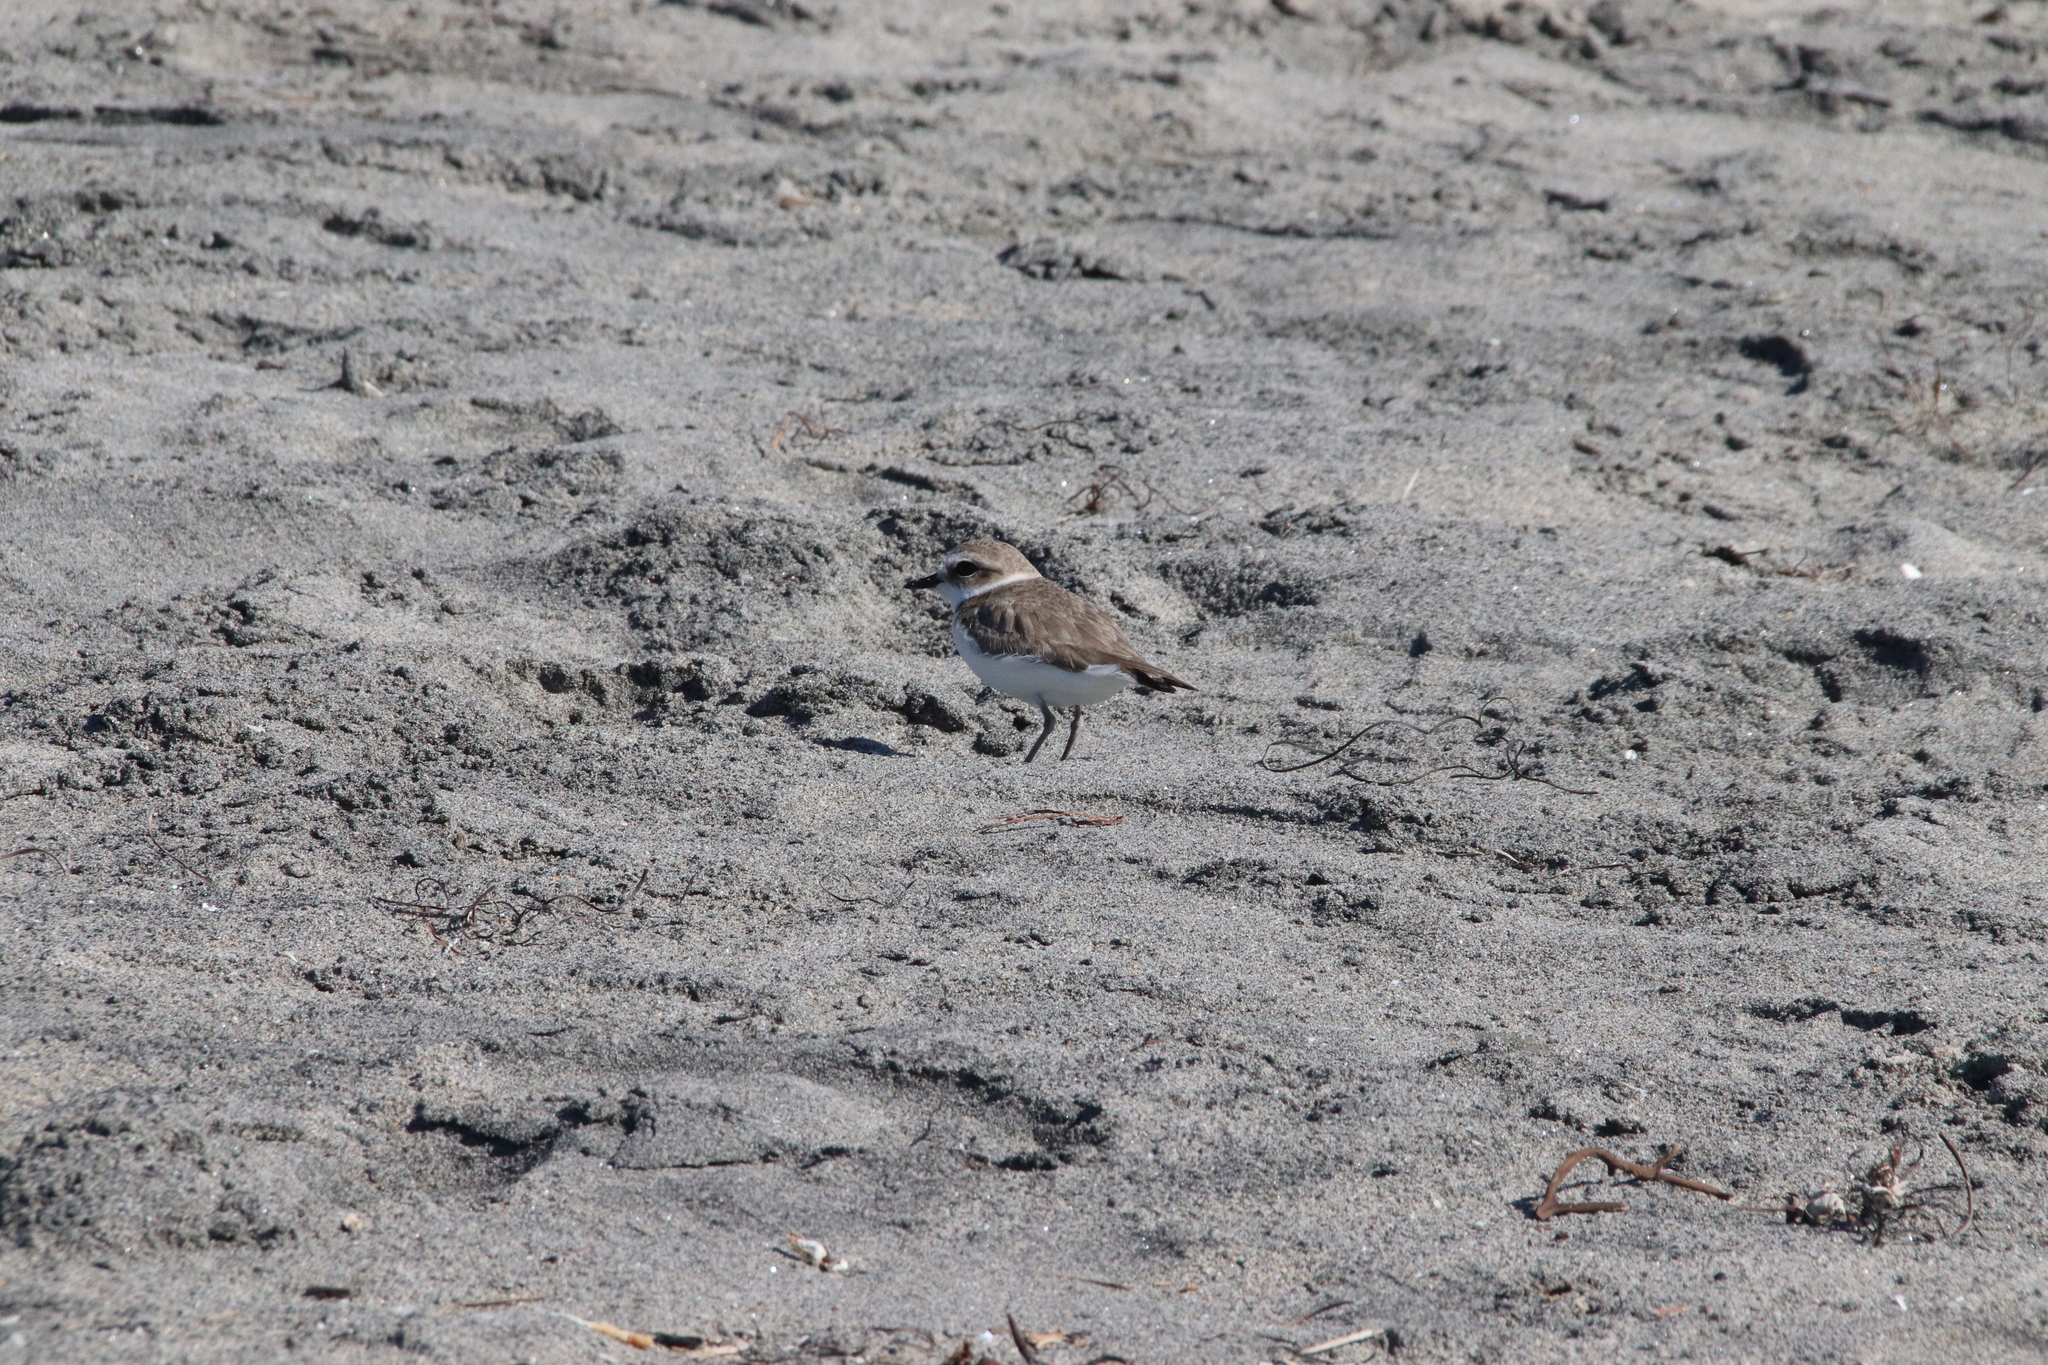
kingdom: Animalia
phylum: Chordata
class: Aves
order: Charadriiformes
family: Charadriidae
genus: Anarhynchus
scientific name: Anarhynchus
